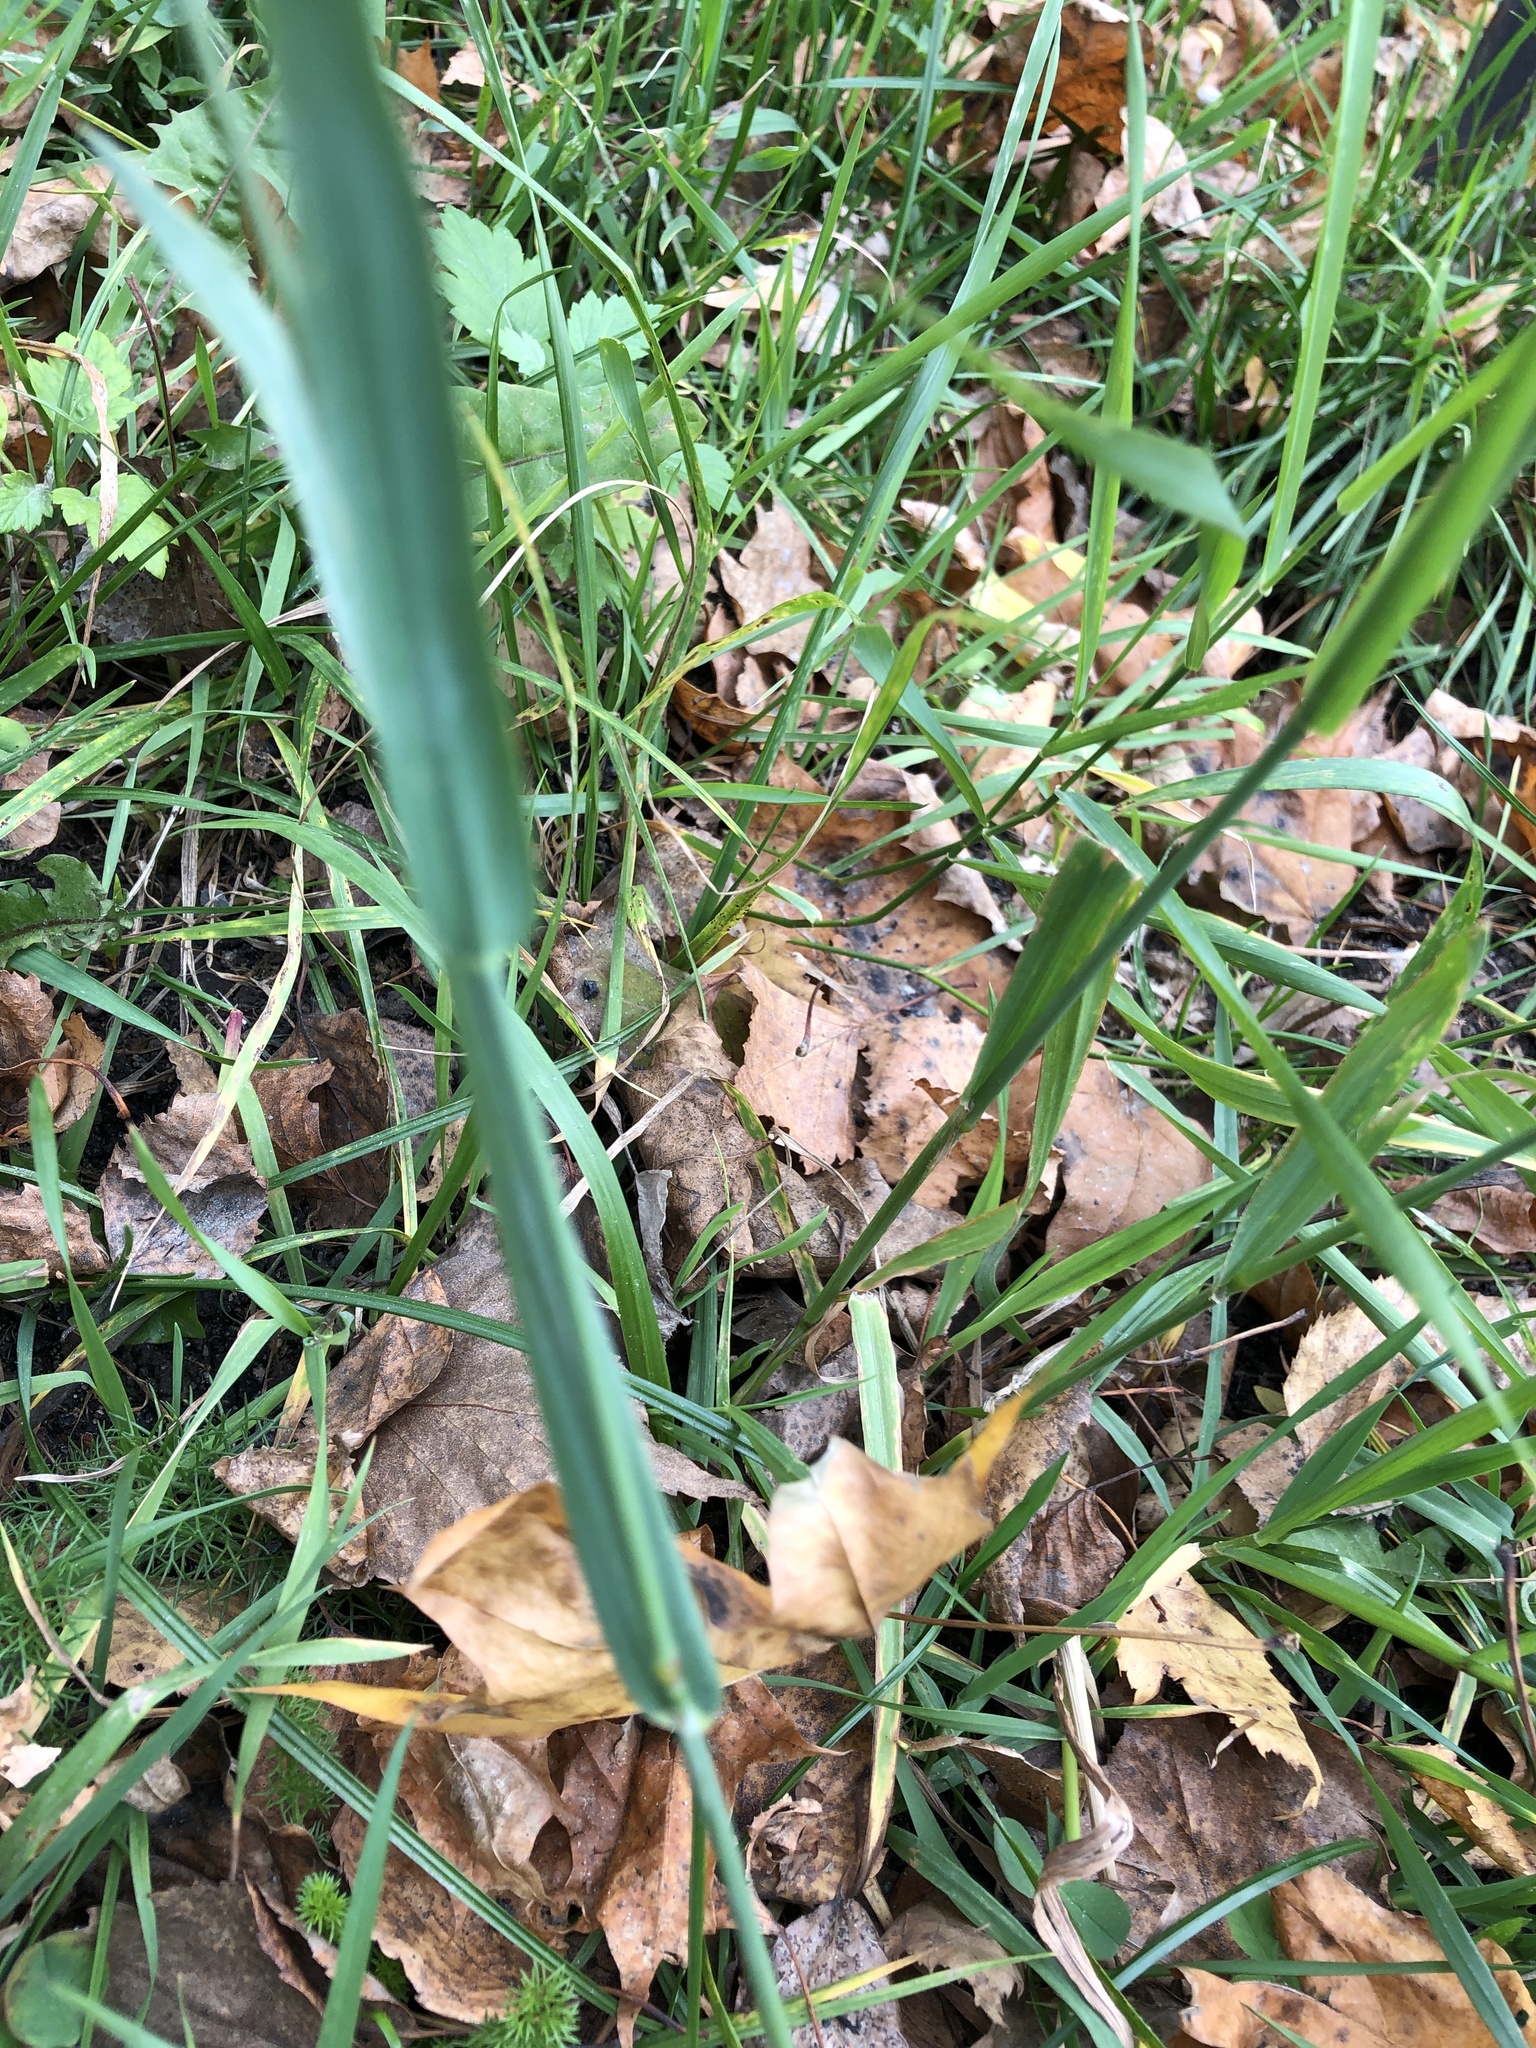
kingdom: Plantae
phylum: Tracheophyta
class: Liliopsida
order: Poales
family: Poaceae
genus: Phleum
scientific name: Phleum pratense
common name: Timothy grass
